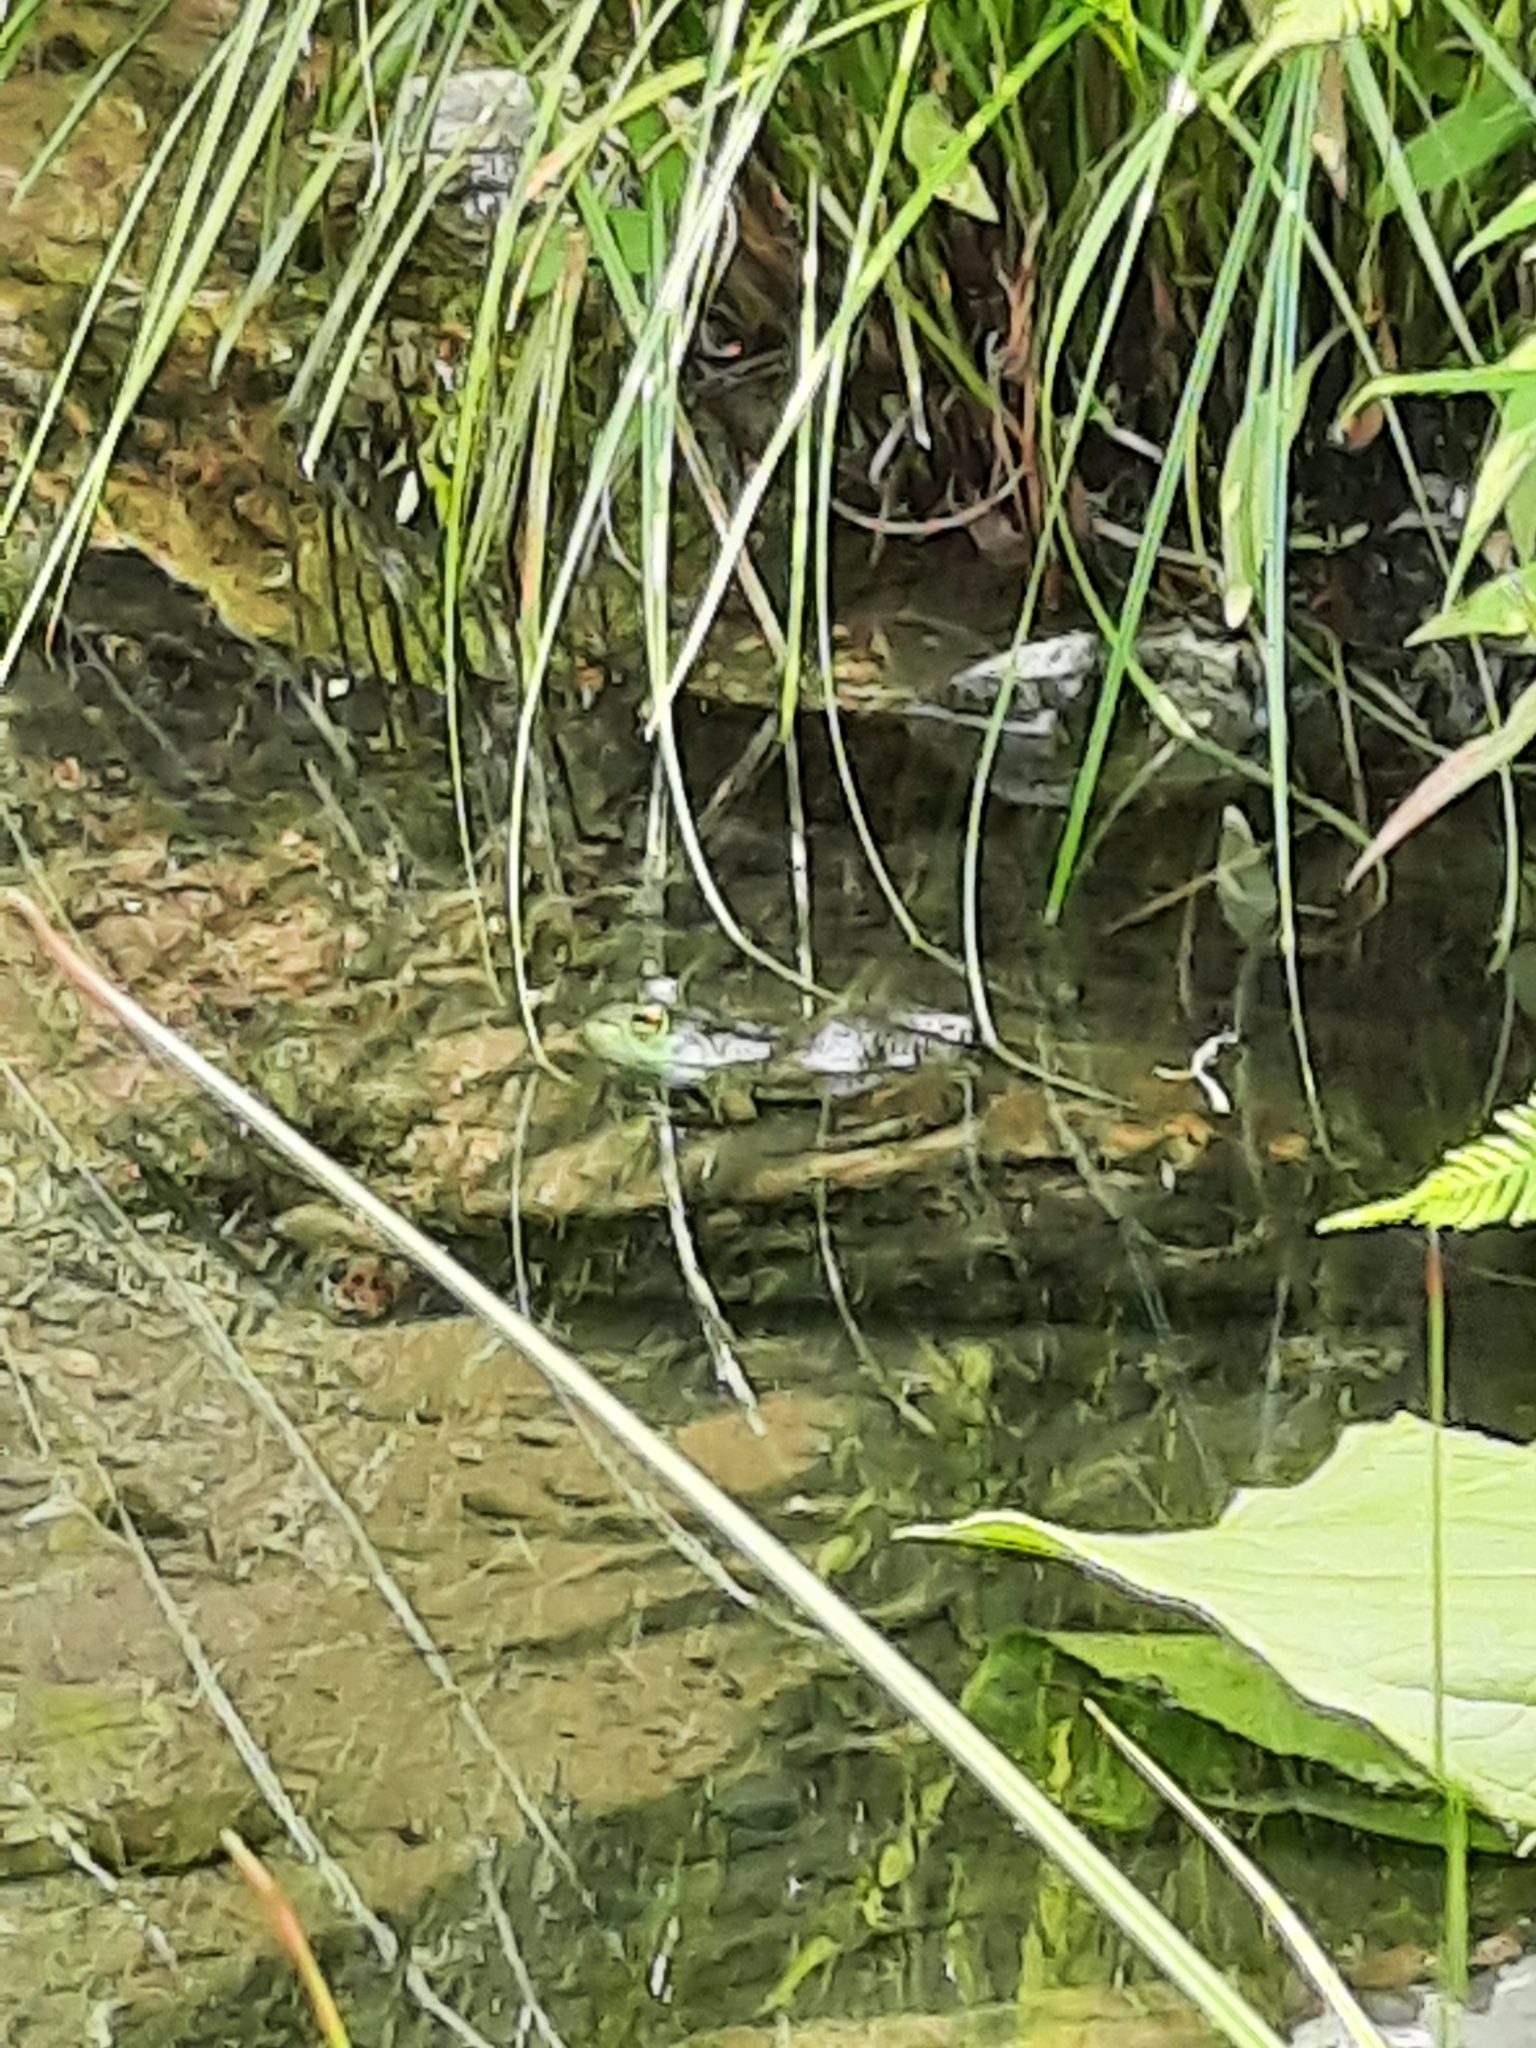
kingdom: Animalia
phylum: Chordata
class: Amphibia
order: Anura
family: Ranidae
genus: Lithobates
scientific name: Lithobates catesbeianus
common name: American bullfrog
